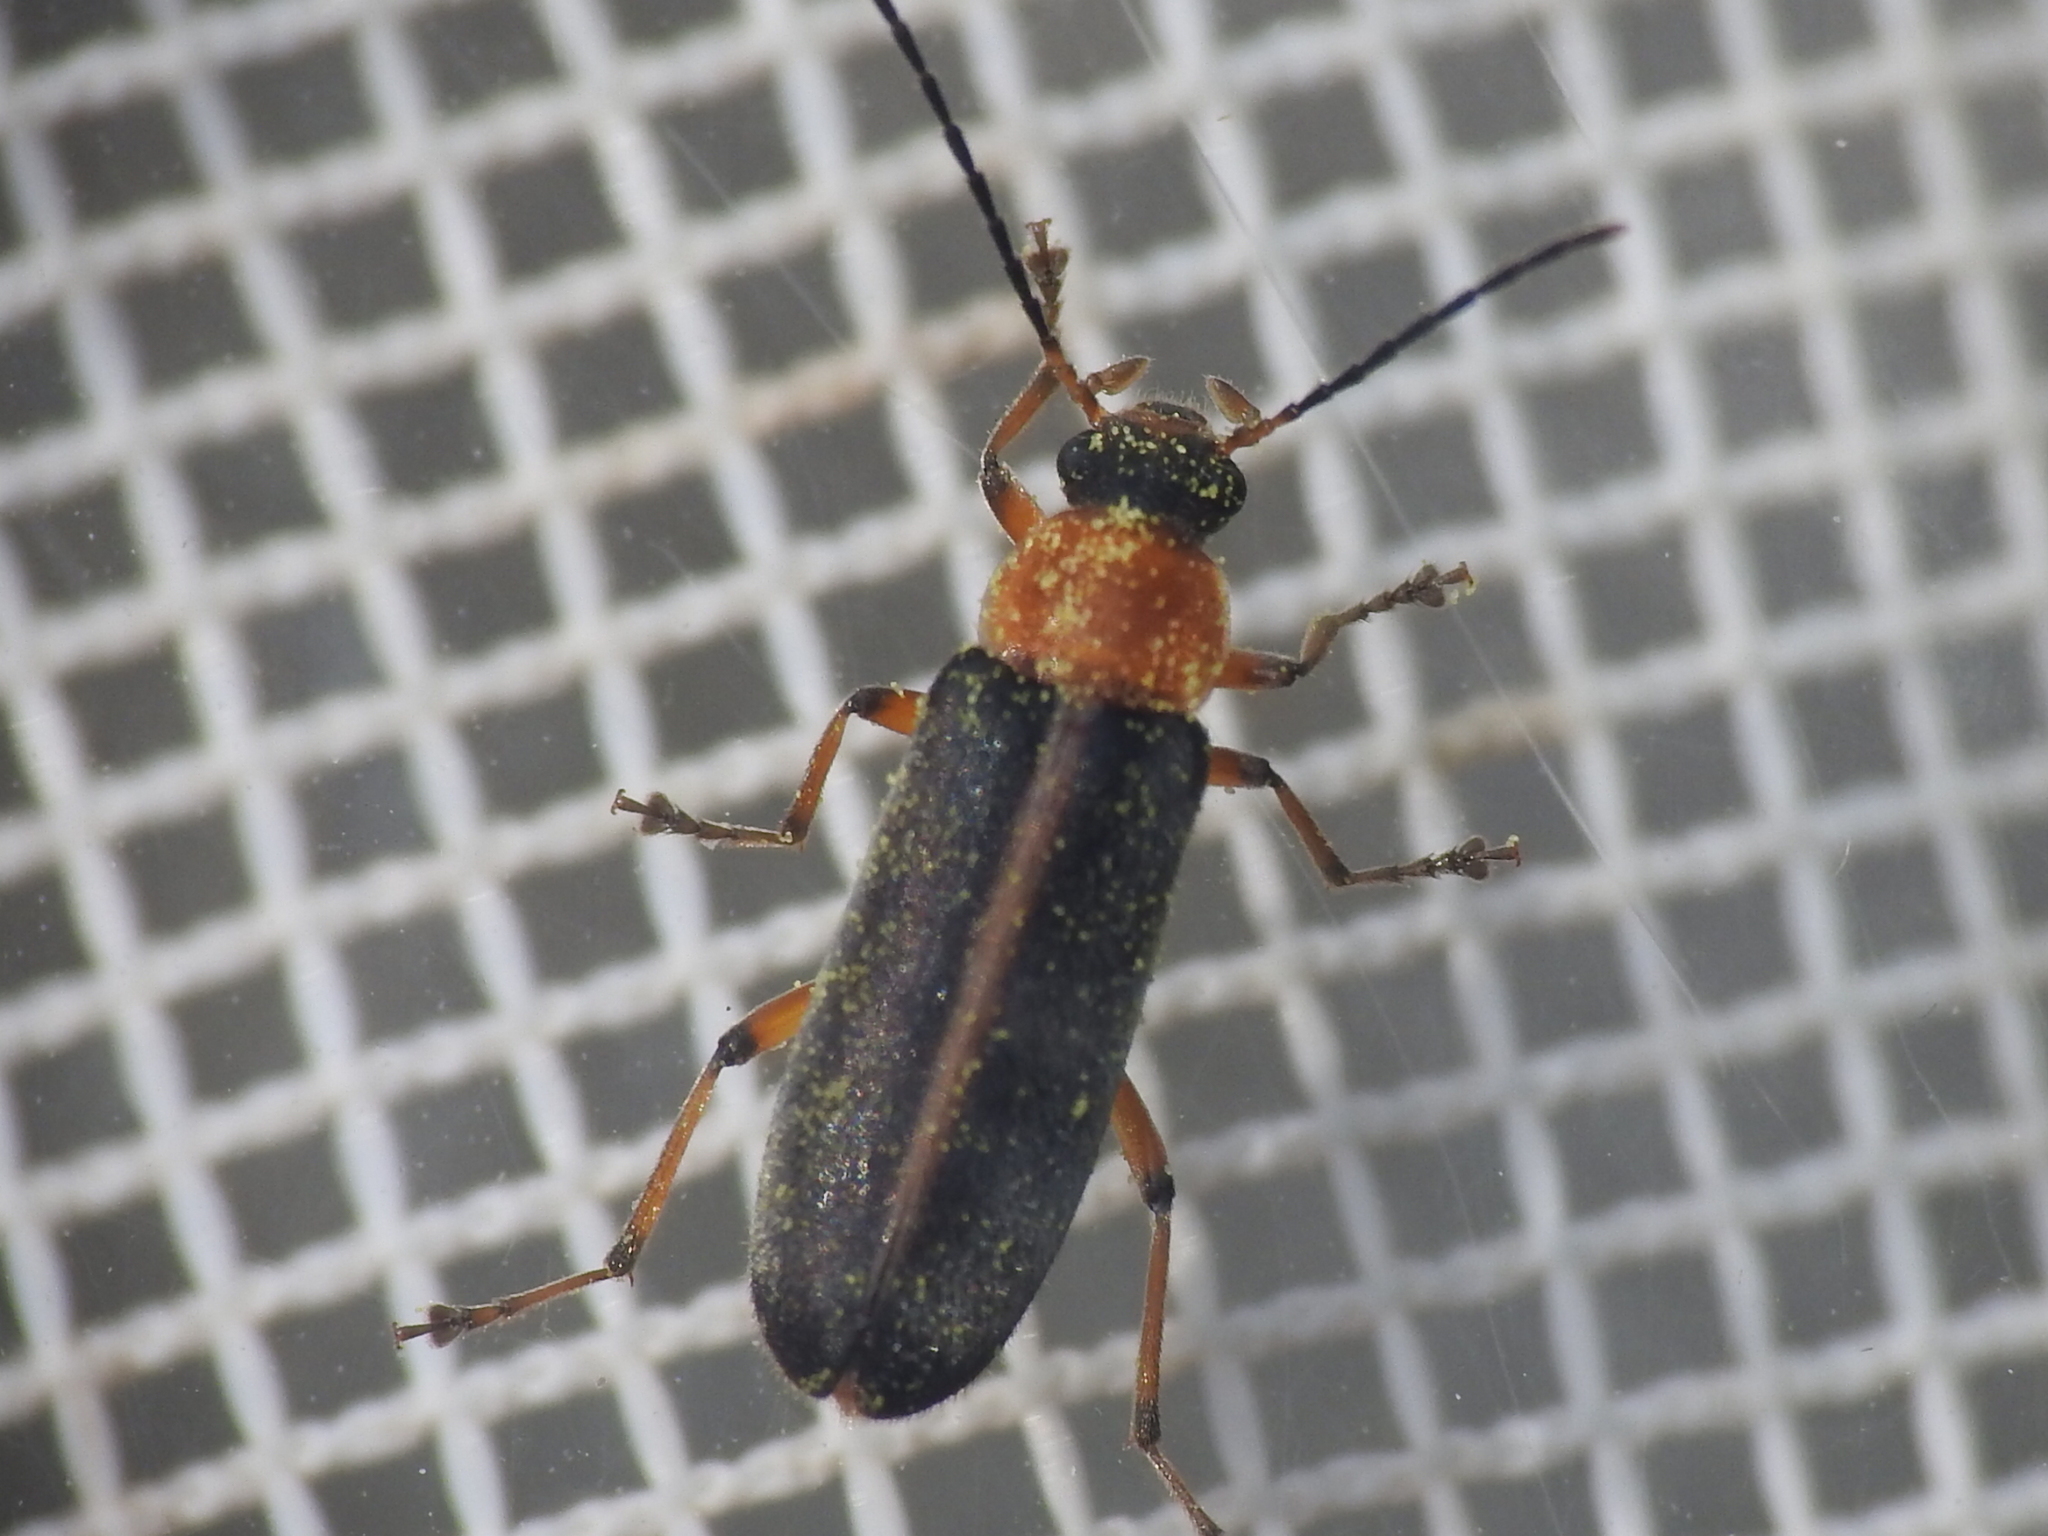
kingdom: Animalia
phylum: Arthropoda
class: Insecta
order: Coleoptera
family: Melandryidae
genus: Osphya
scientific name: Osphya varians
